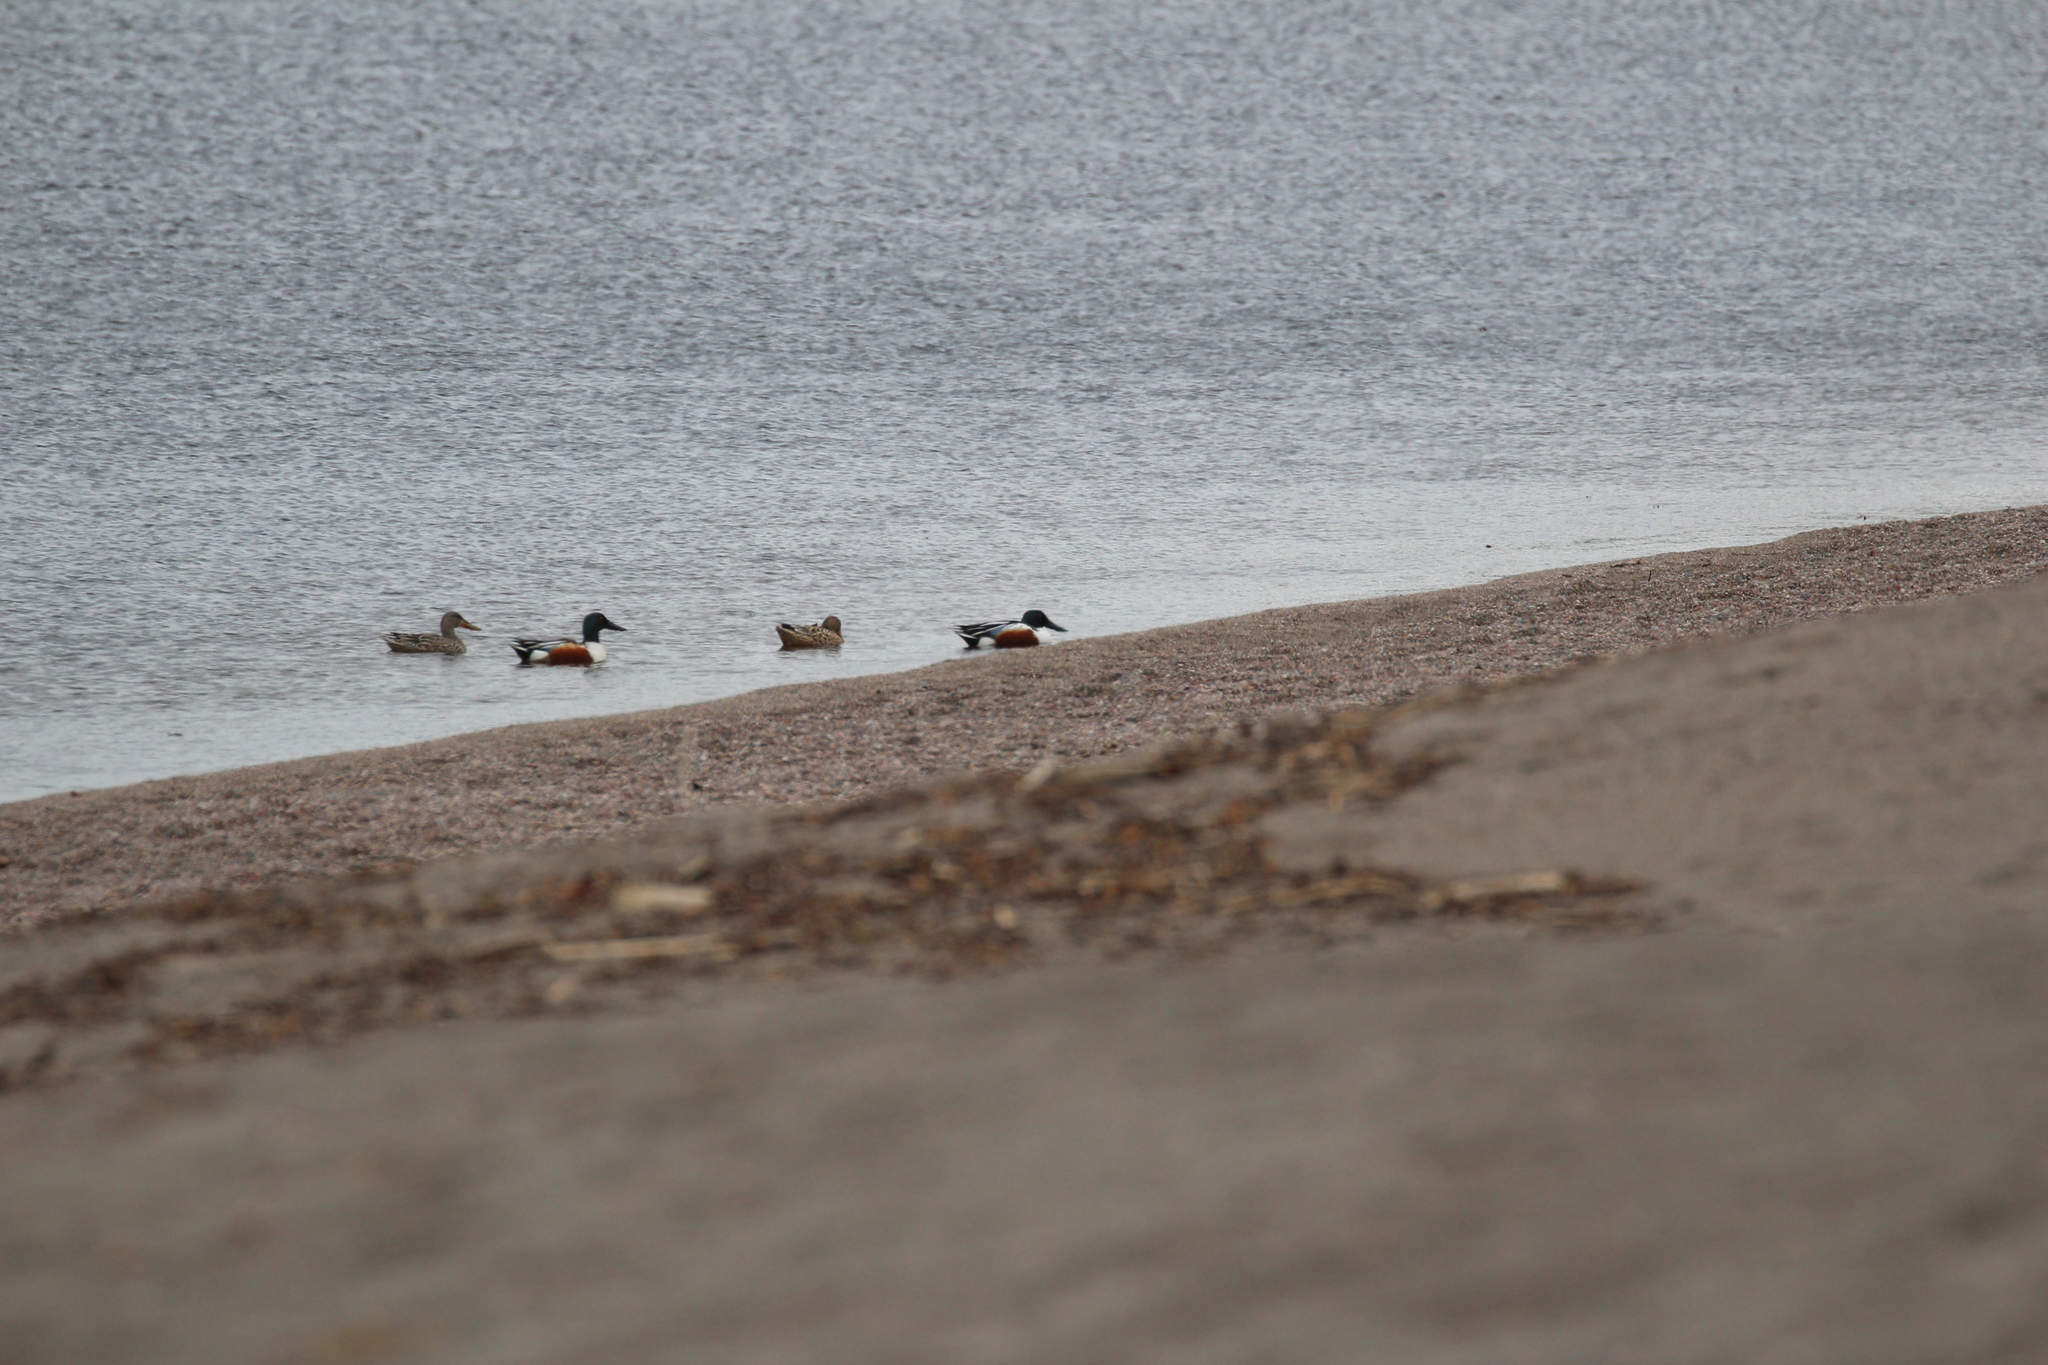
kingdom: Animalia
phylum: Chordata
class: Aves
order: Anseriformes
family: Anatidae
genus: Spatula
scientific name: Spatula clypeata
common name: Northern shoveler
